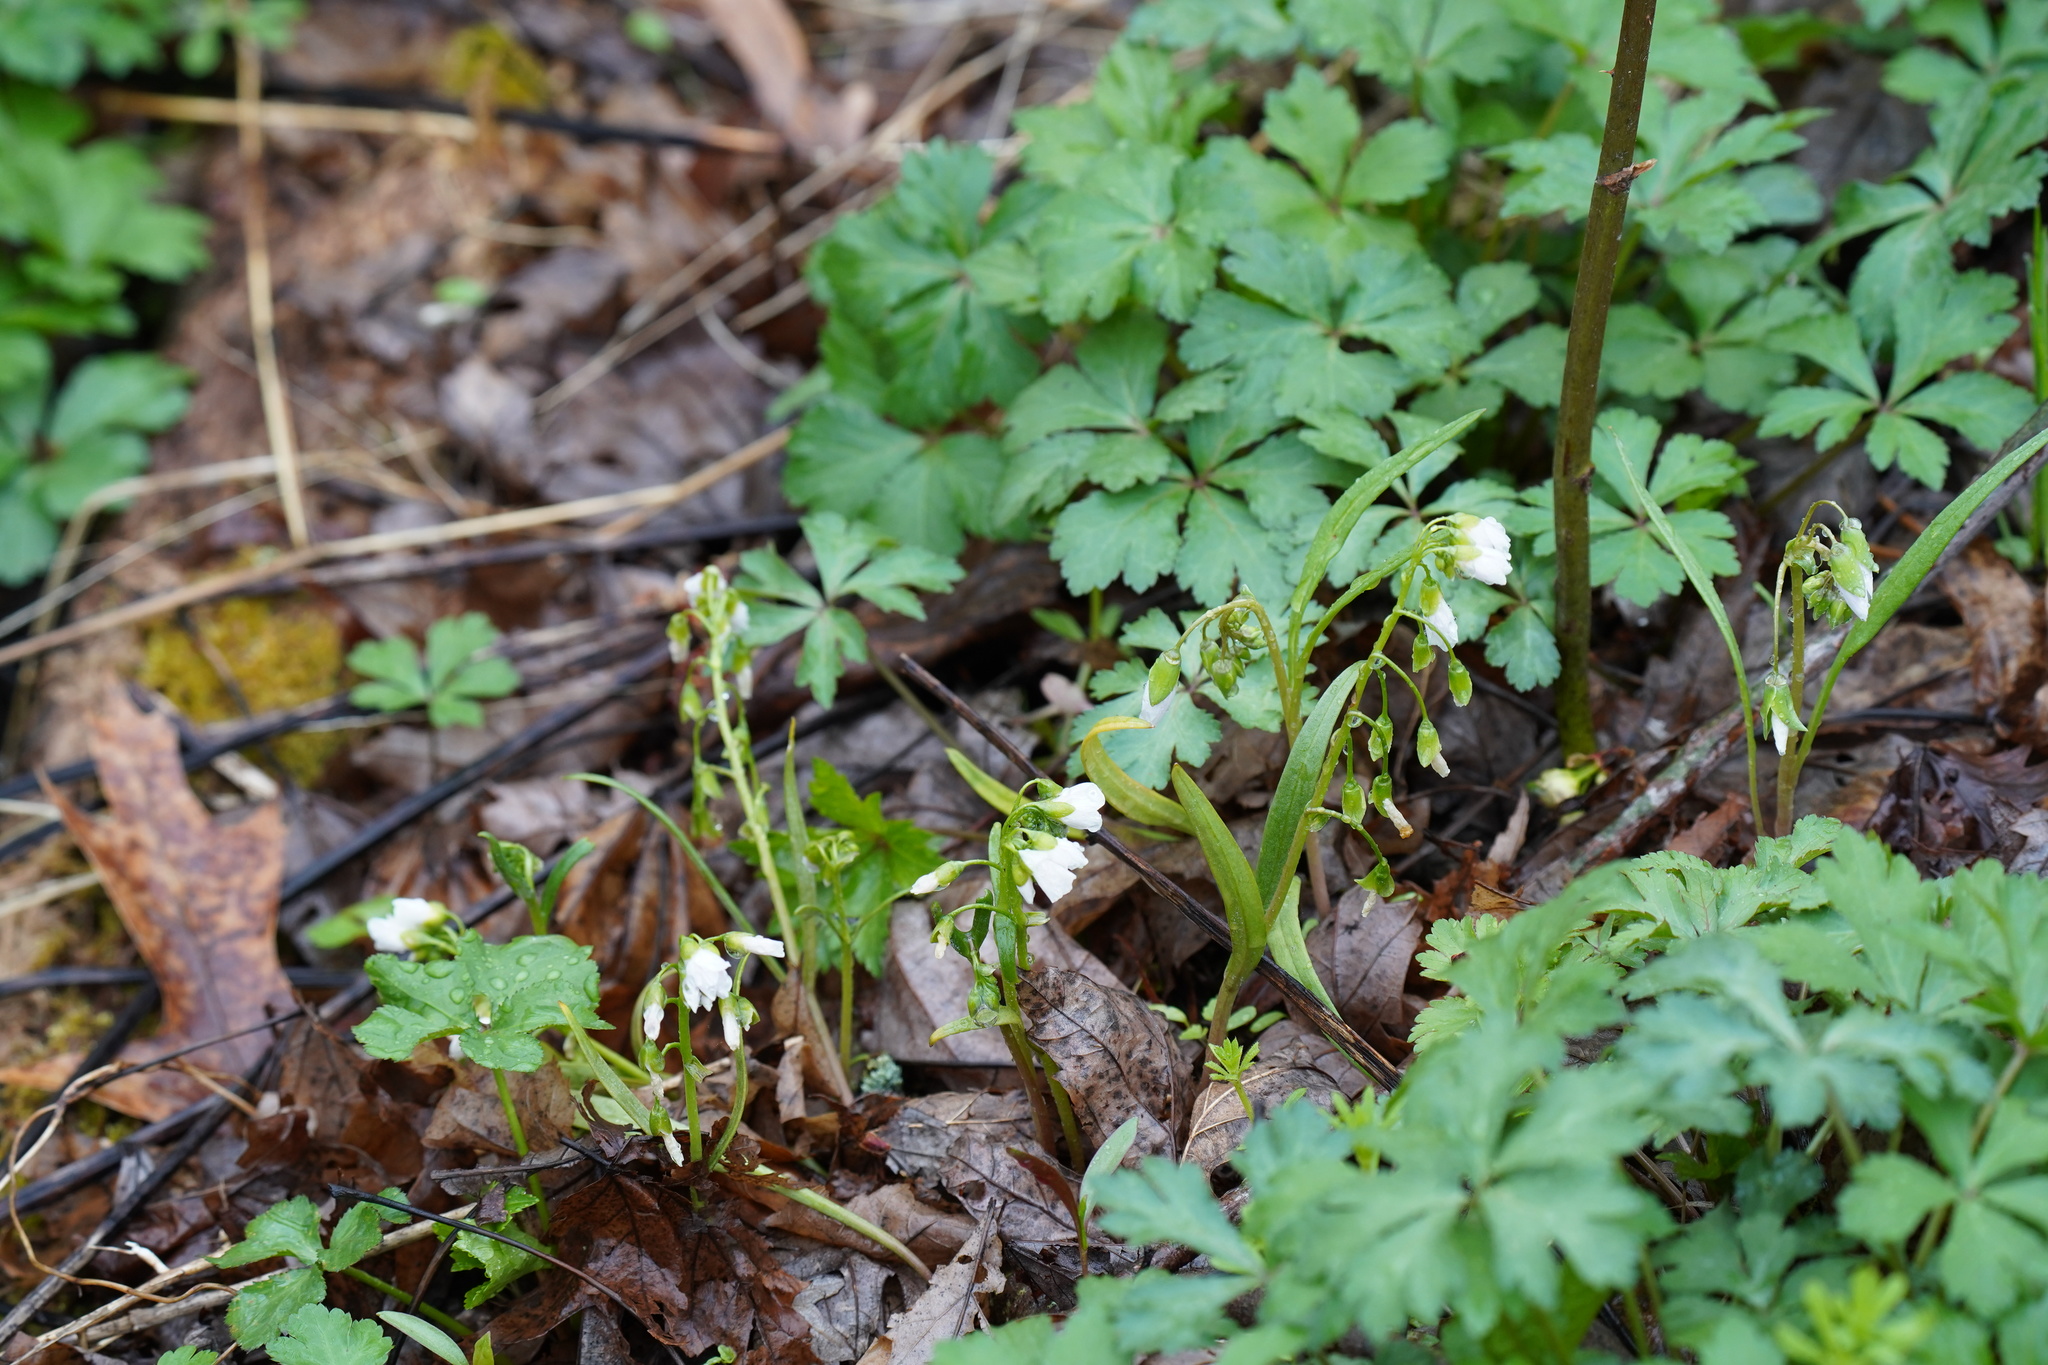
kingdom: Plantae
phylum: Tracheophyta
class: Magnoliopsida
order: Caryophyllales
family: Montiaceae
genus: Claytonia
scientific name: Claytonia virginica
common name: Virginia springbeauty
